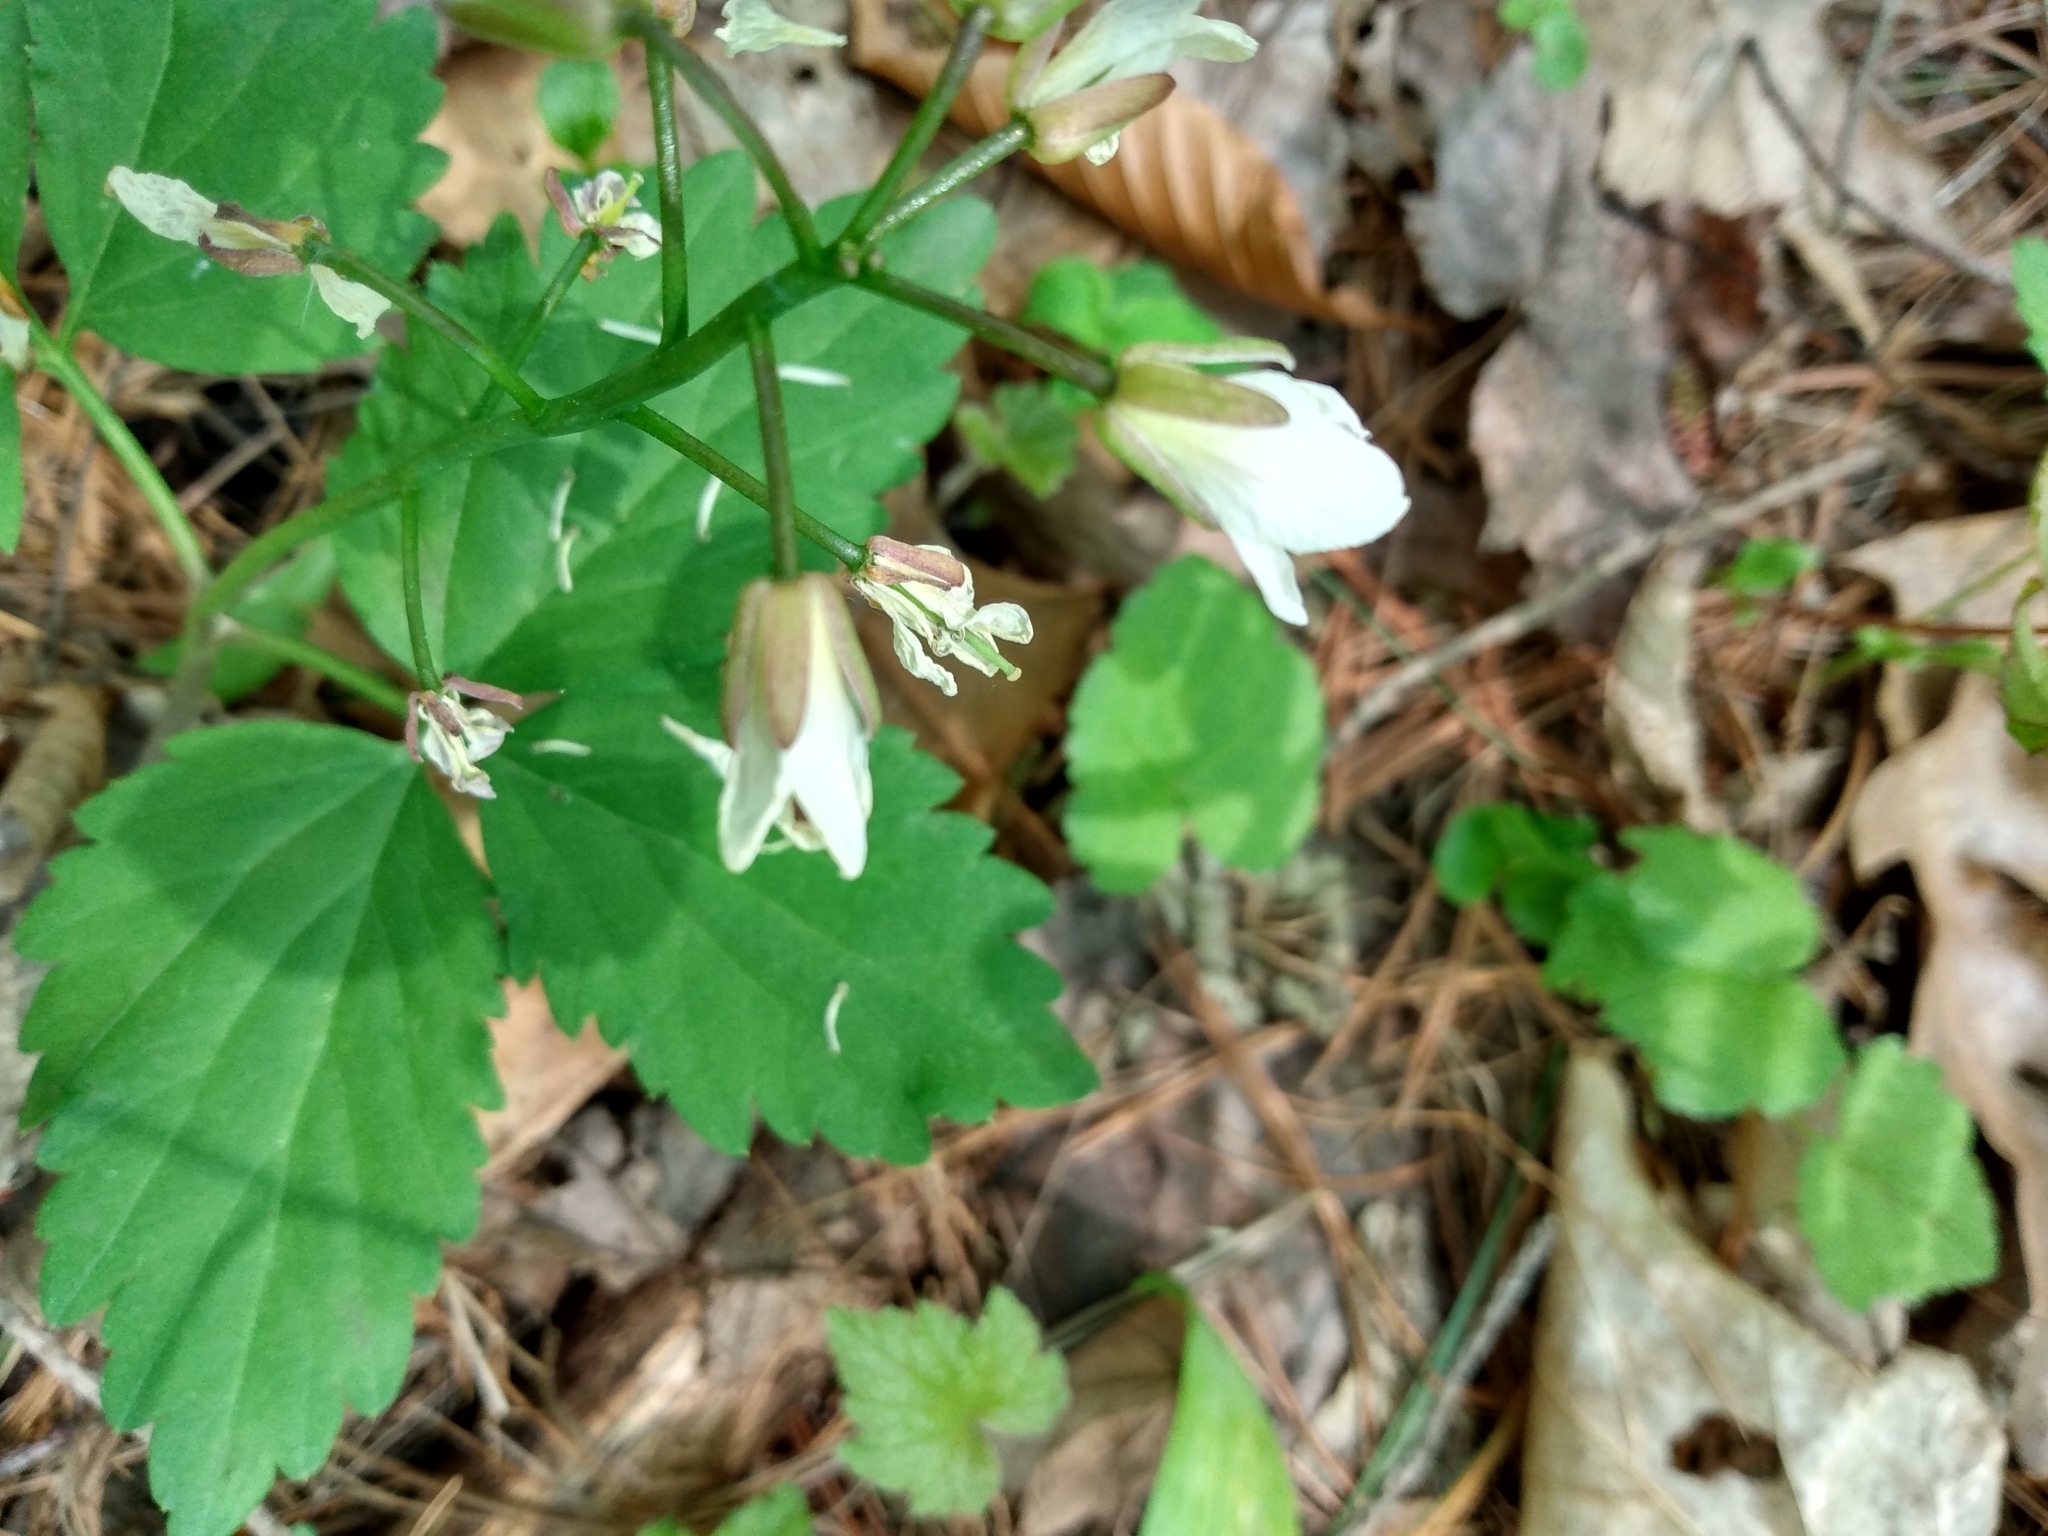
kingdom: Plantae
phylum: Tracheophyta
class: Magnoliopsida
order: Brassicales
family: Brassicaceae
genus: Cardamine
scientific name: Cardamine diphylla
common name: Broad-leaved toothwort
